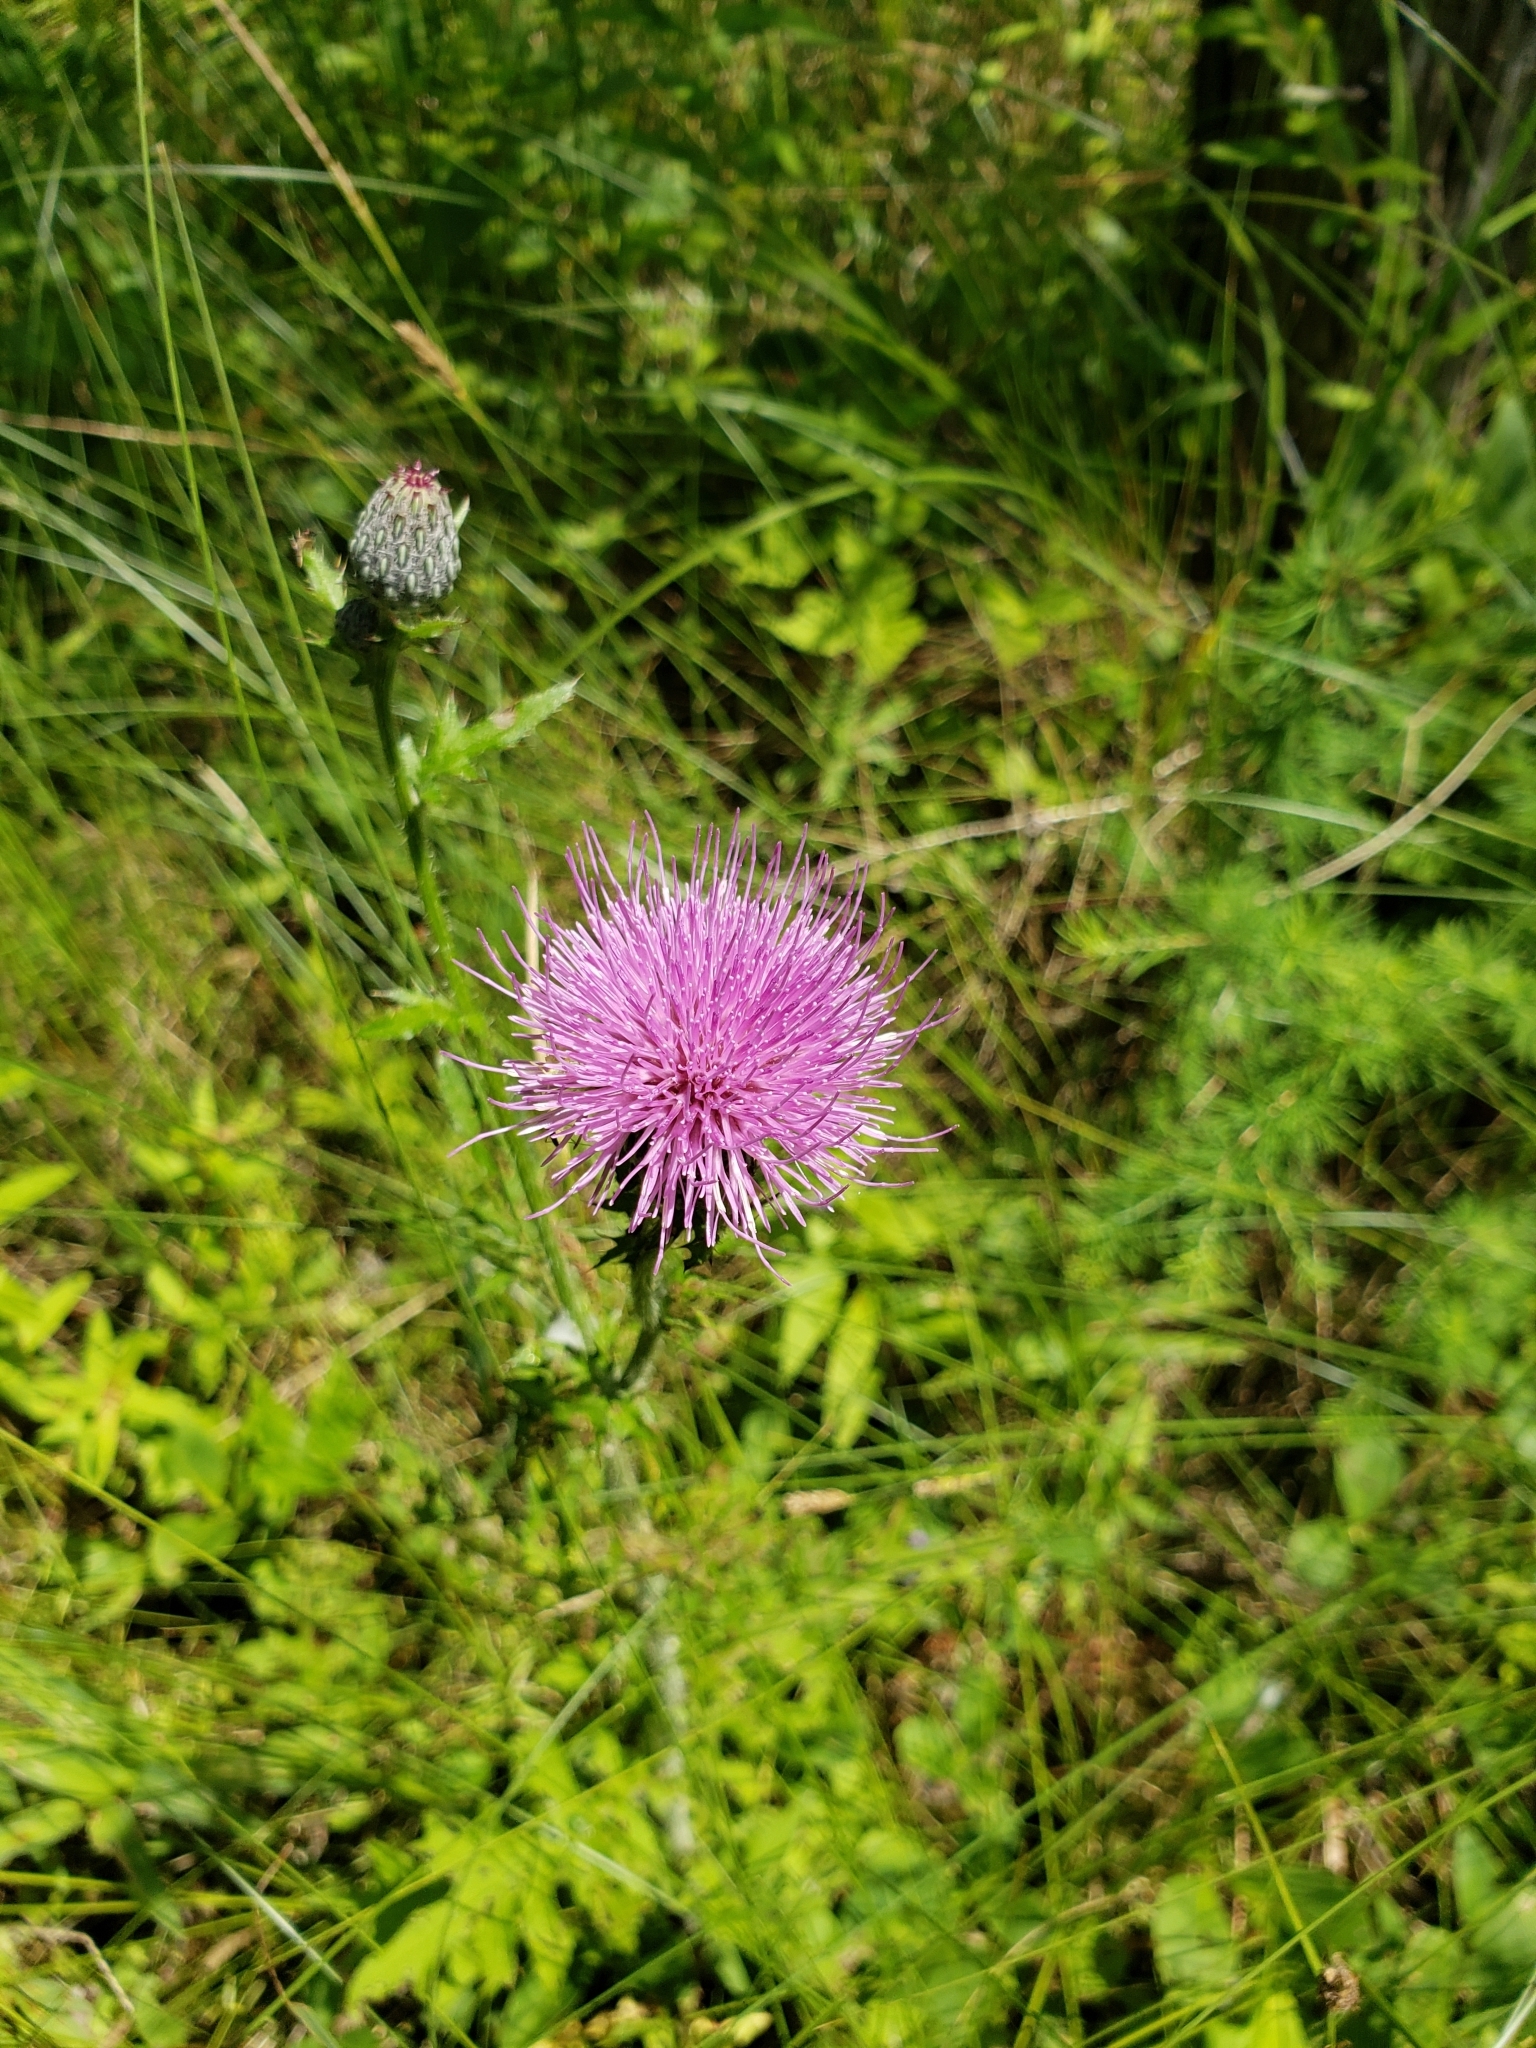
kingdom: Plantae
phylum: Tracheophyta
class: Magnoliopsida
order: Asterales
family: Asteraceae
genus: Cirsium
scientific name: Cirsium muticum
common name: Dunce-nettle
